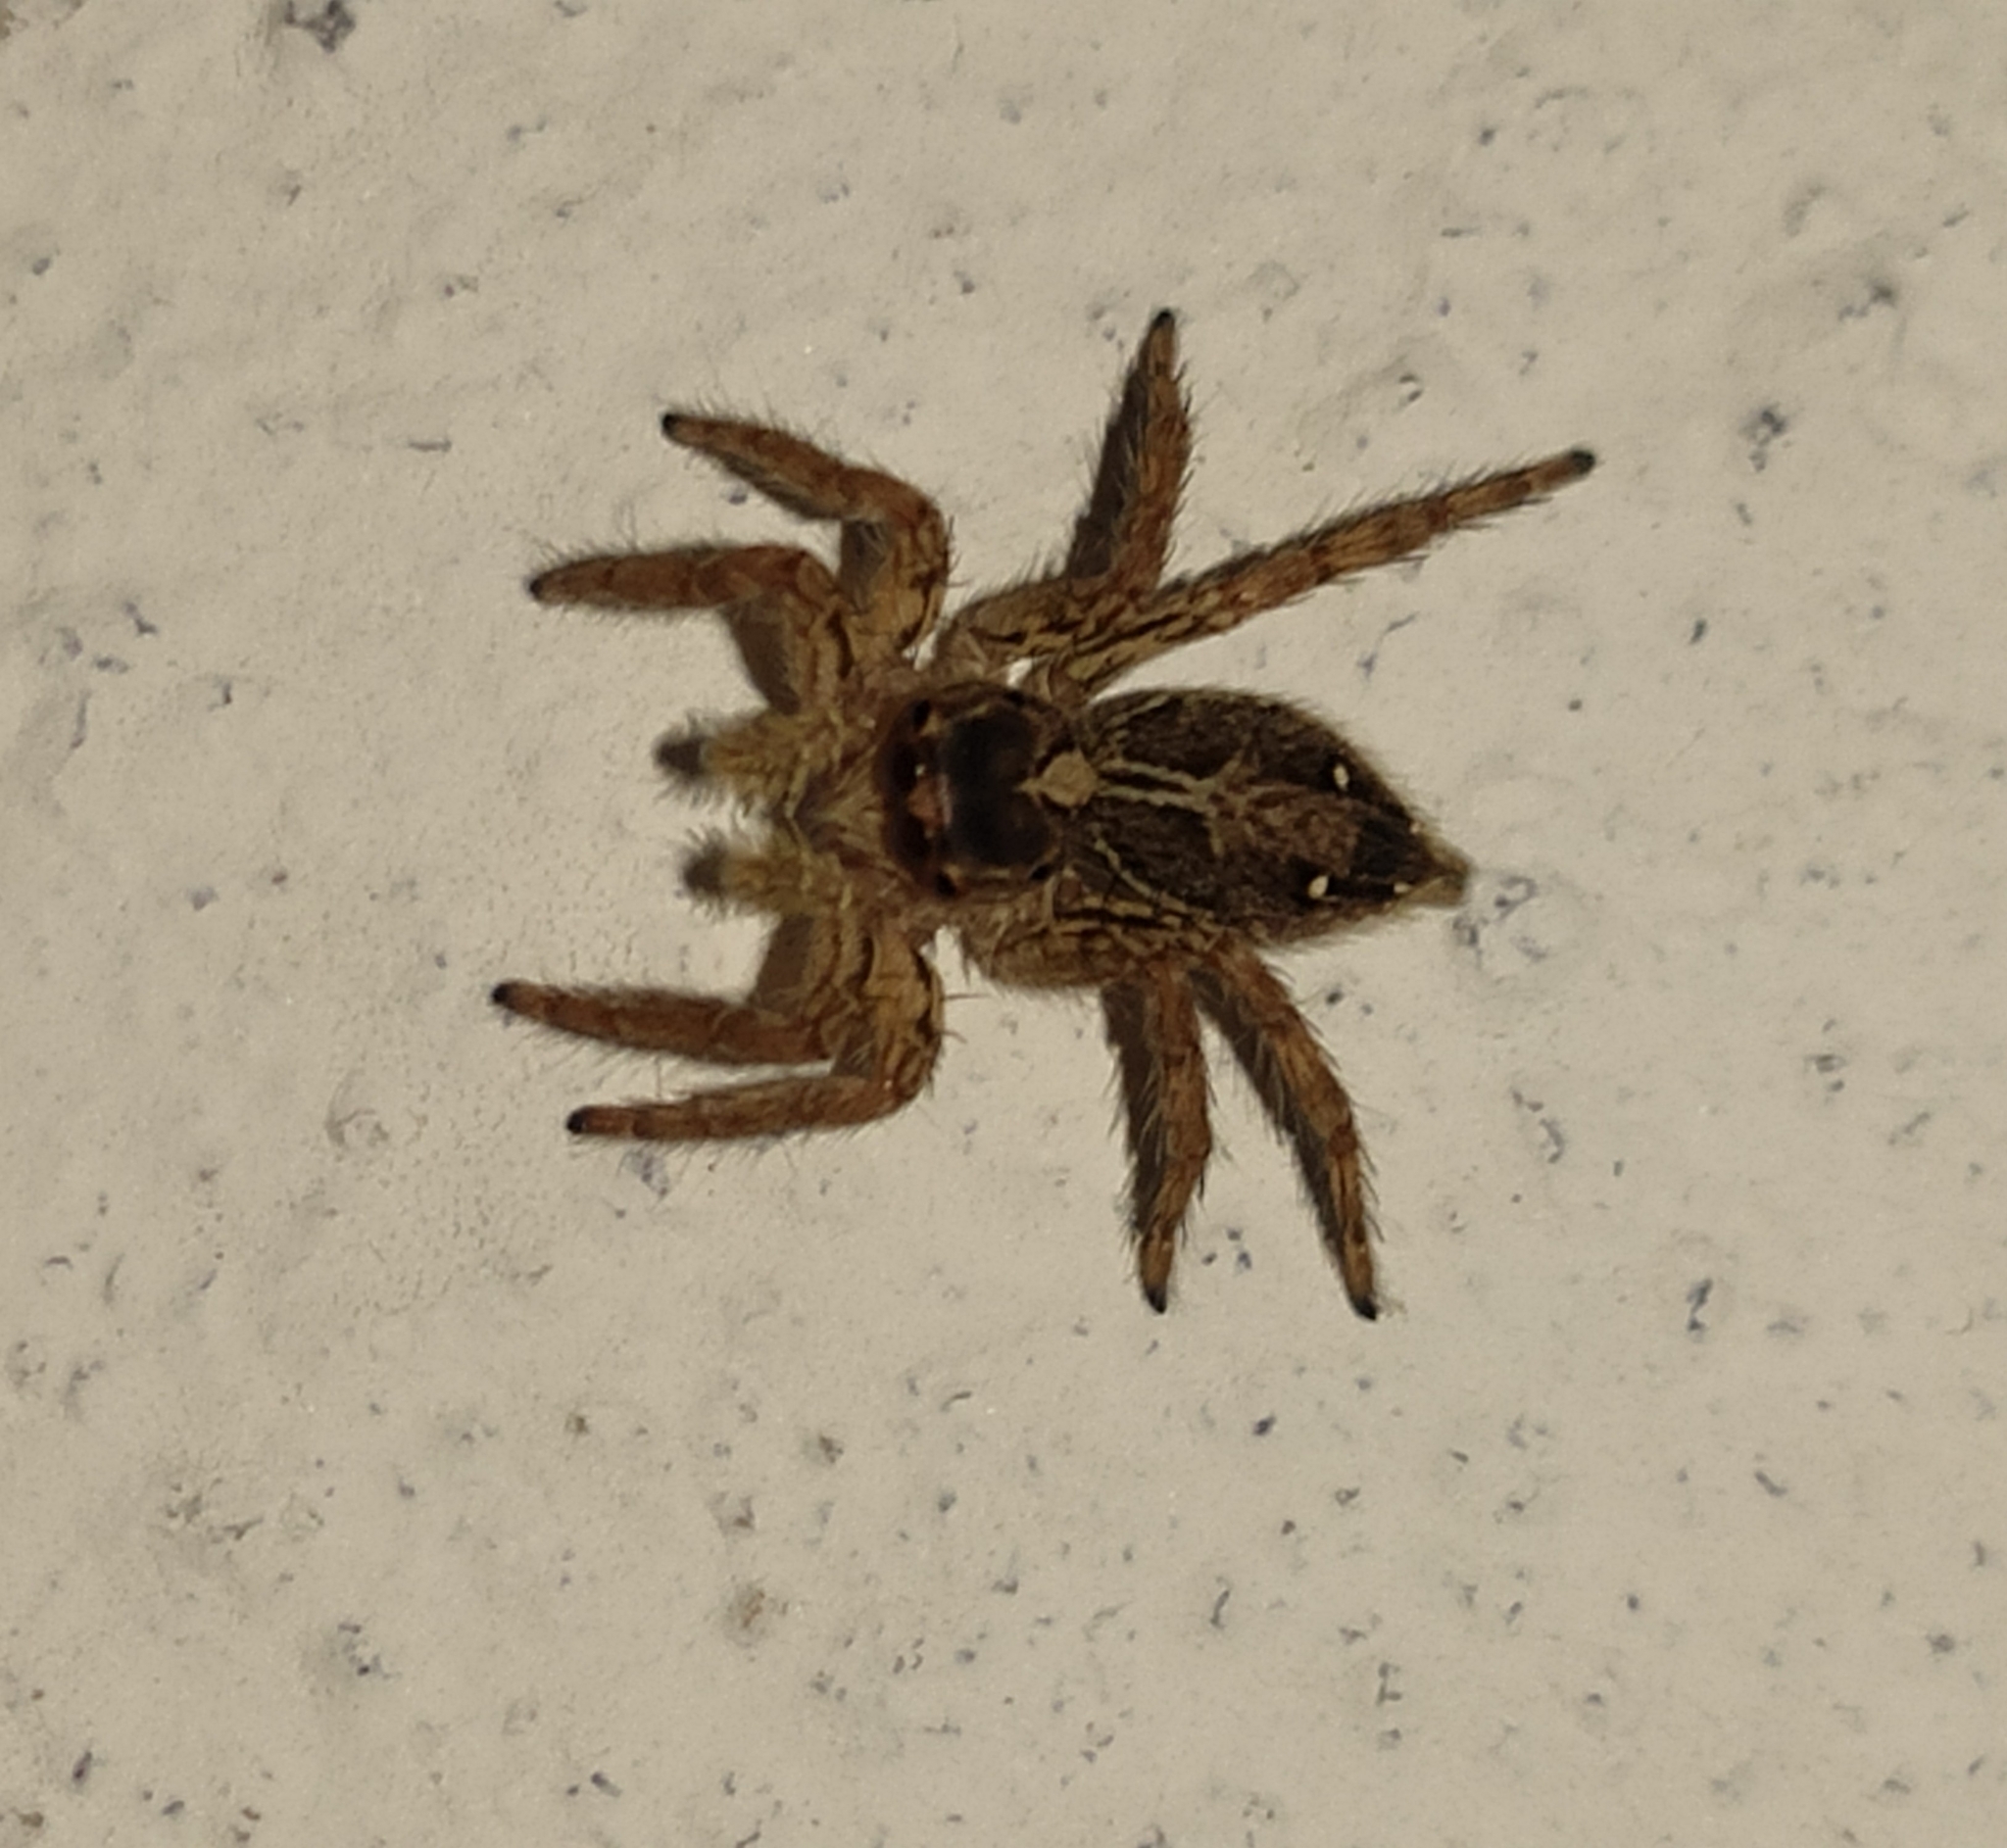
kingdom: Animalia
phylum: Arthropoda
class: Arachnida
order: Araneae
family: Salticidae
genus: Plexippus
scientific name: Plexippus paykulli
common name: Pantropical jumper
